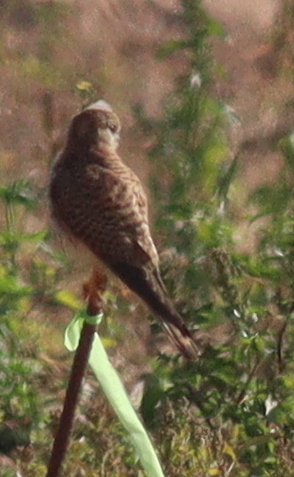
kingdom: Animalia
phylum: Chordata
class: Aves
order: Falconiformes
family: Falconidae
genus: Falco
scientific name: Falco tinnunculus
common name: Common kestrel
